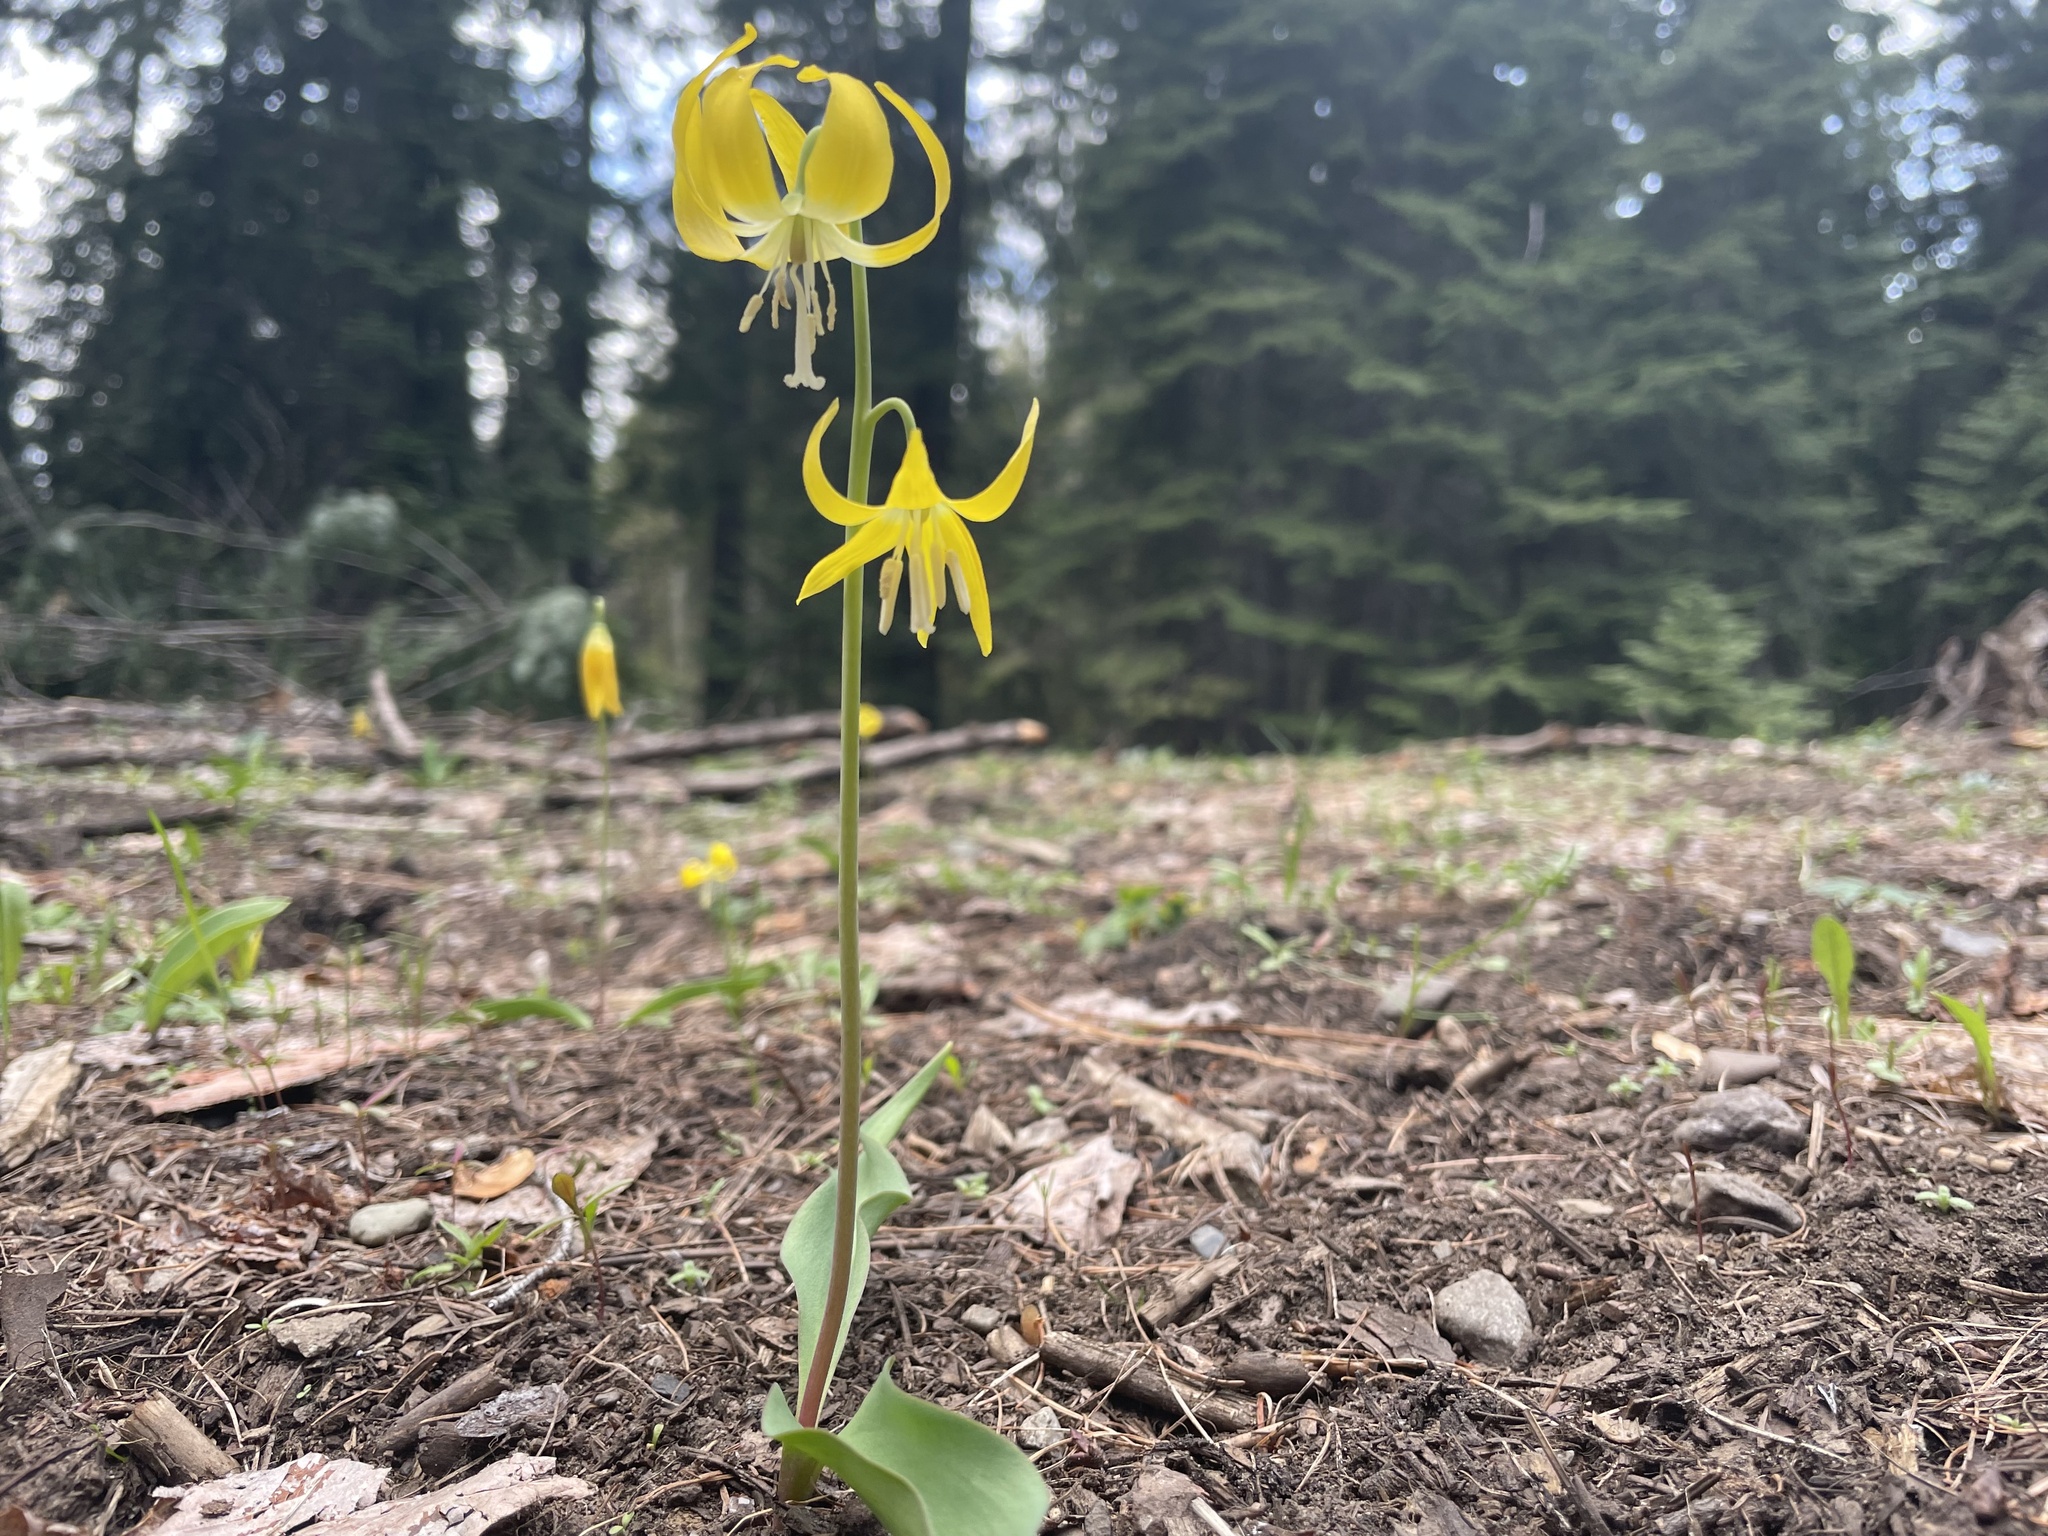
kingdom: Plantae
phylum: Tracheophyta
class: Liliopsida
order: Liliales
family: Liliaceae
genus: Erythronium
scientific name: Erythronium grandiflorum
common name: Avalanche-lily
